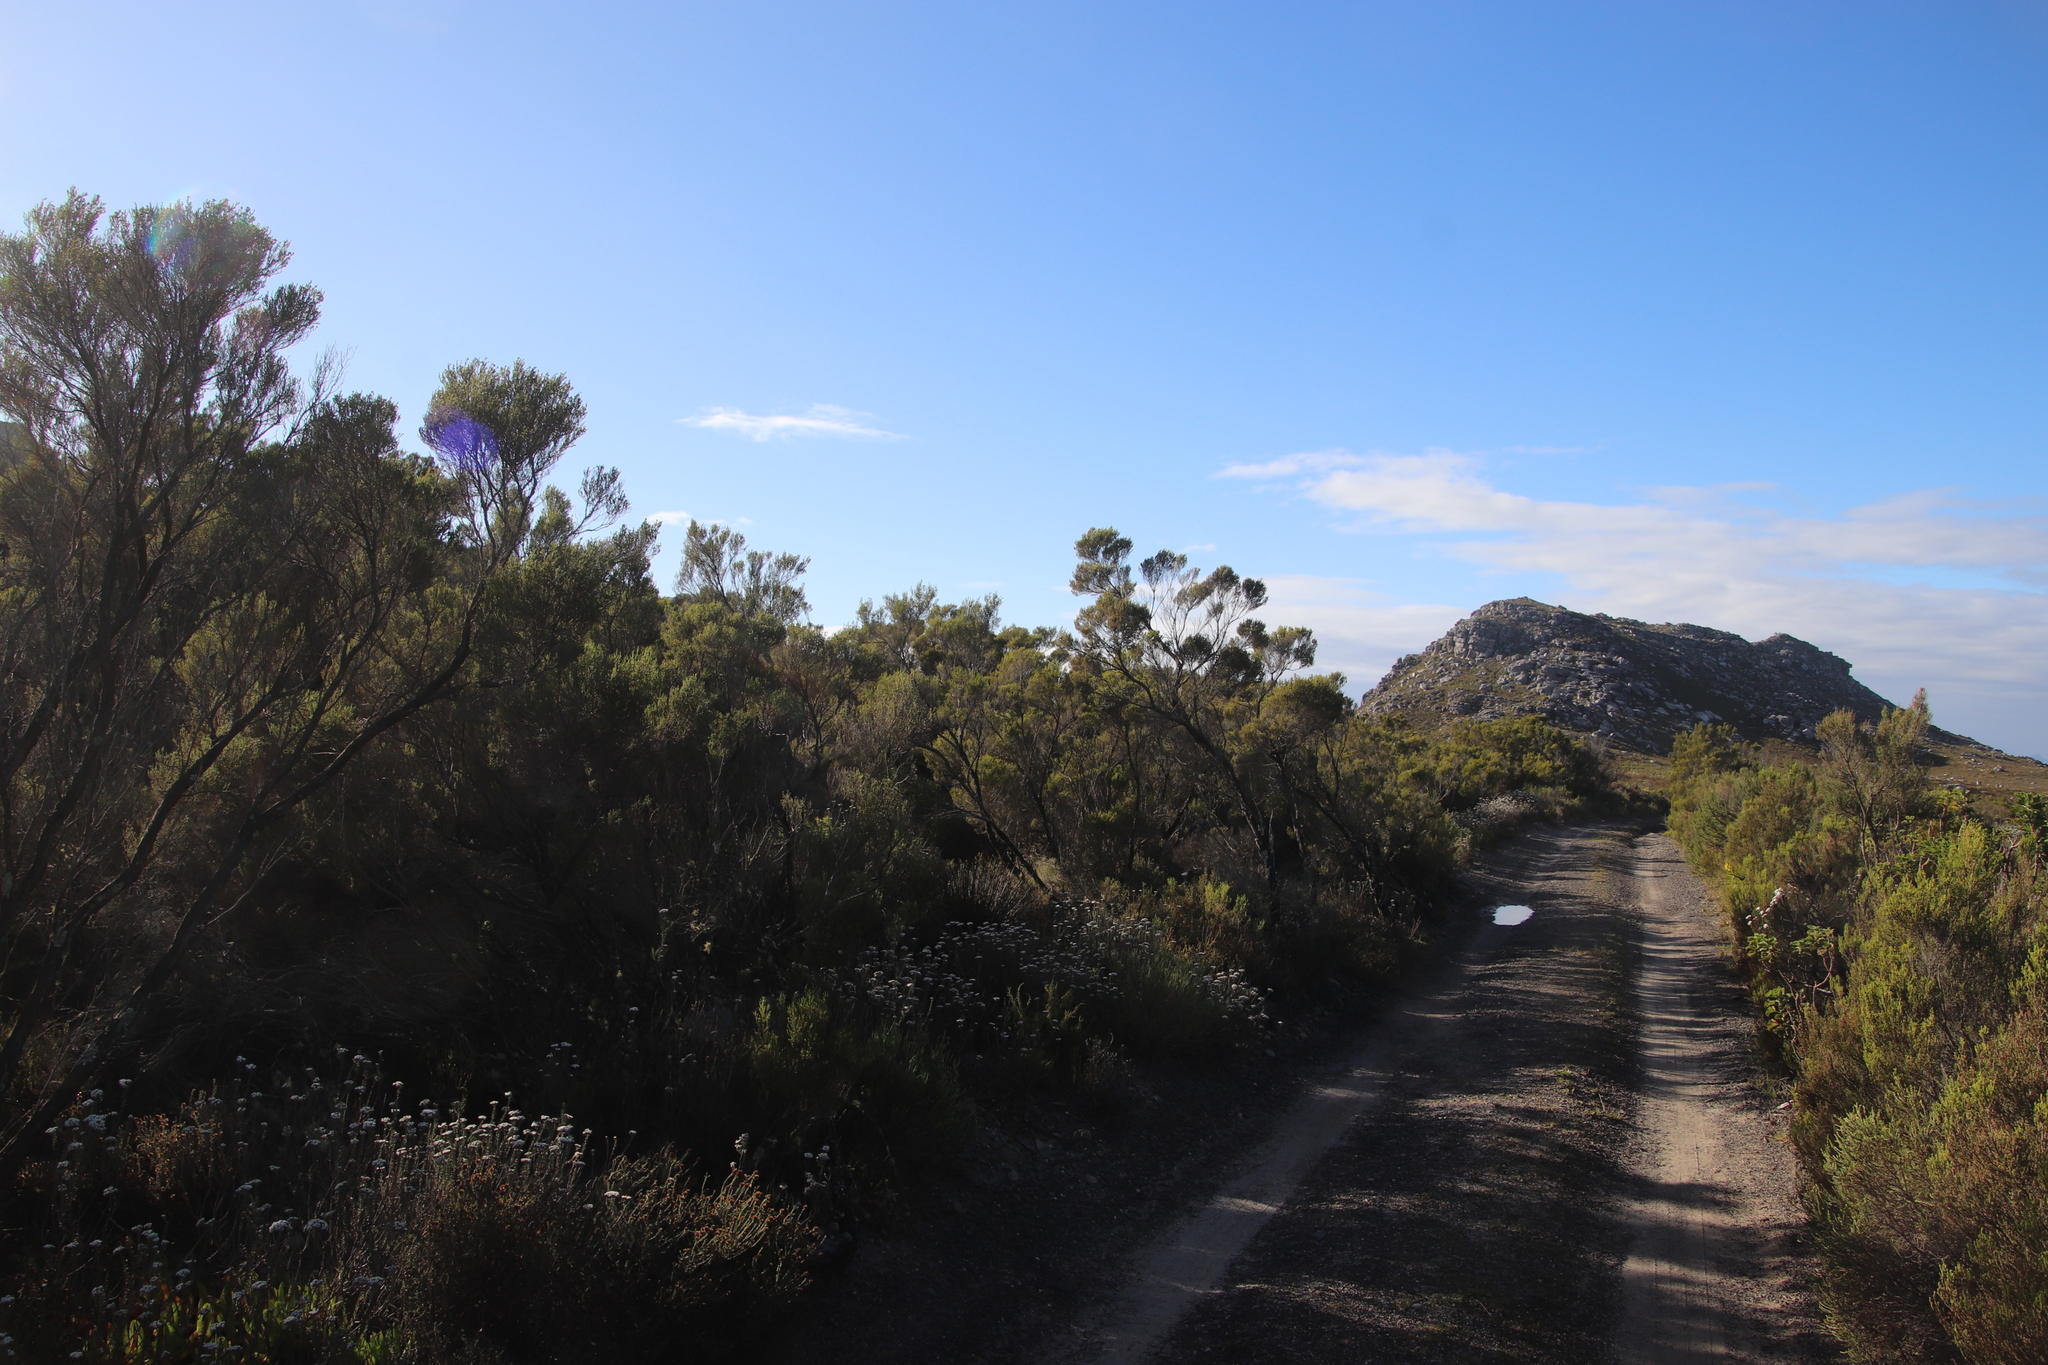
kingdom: Plantae
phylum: Tracheophyta
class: Magnoliopsida
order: Ericales
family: Ericaceae
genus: Erica
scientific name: Erica tristis
